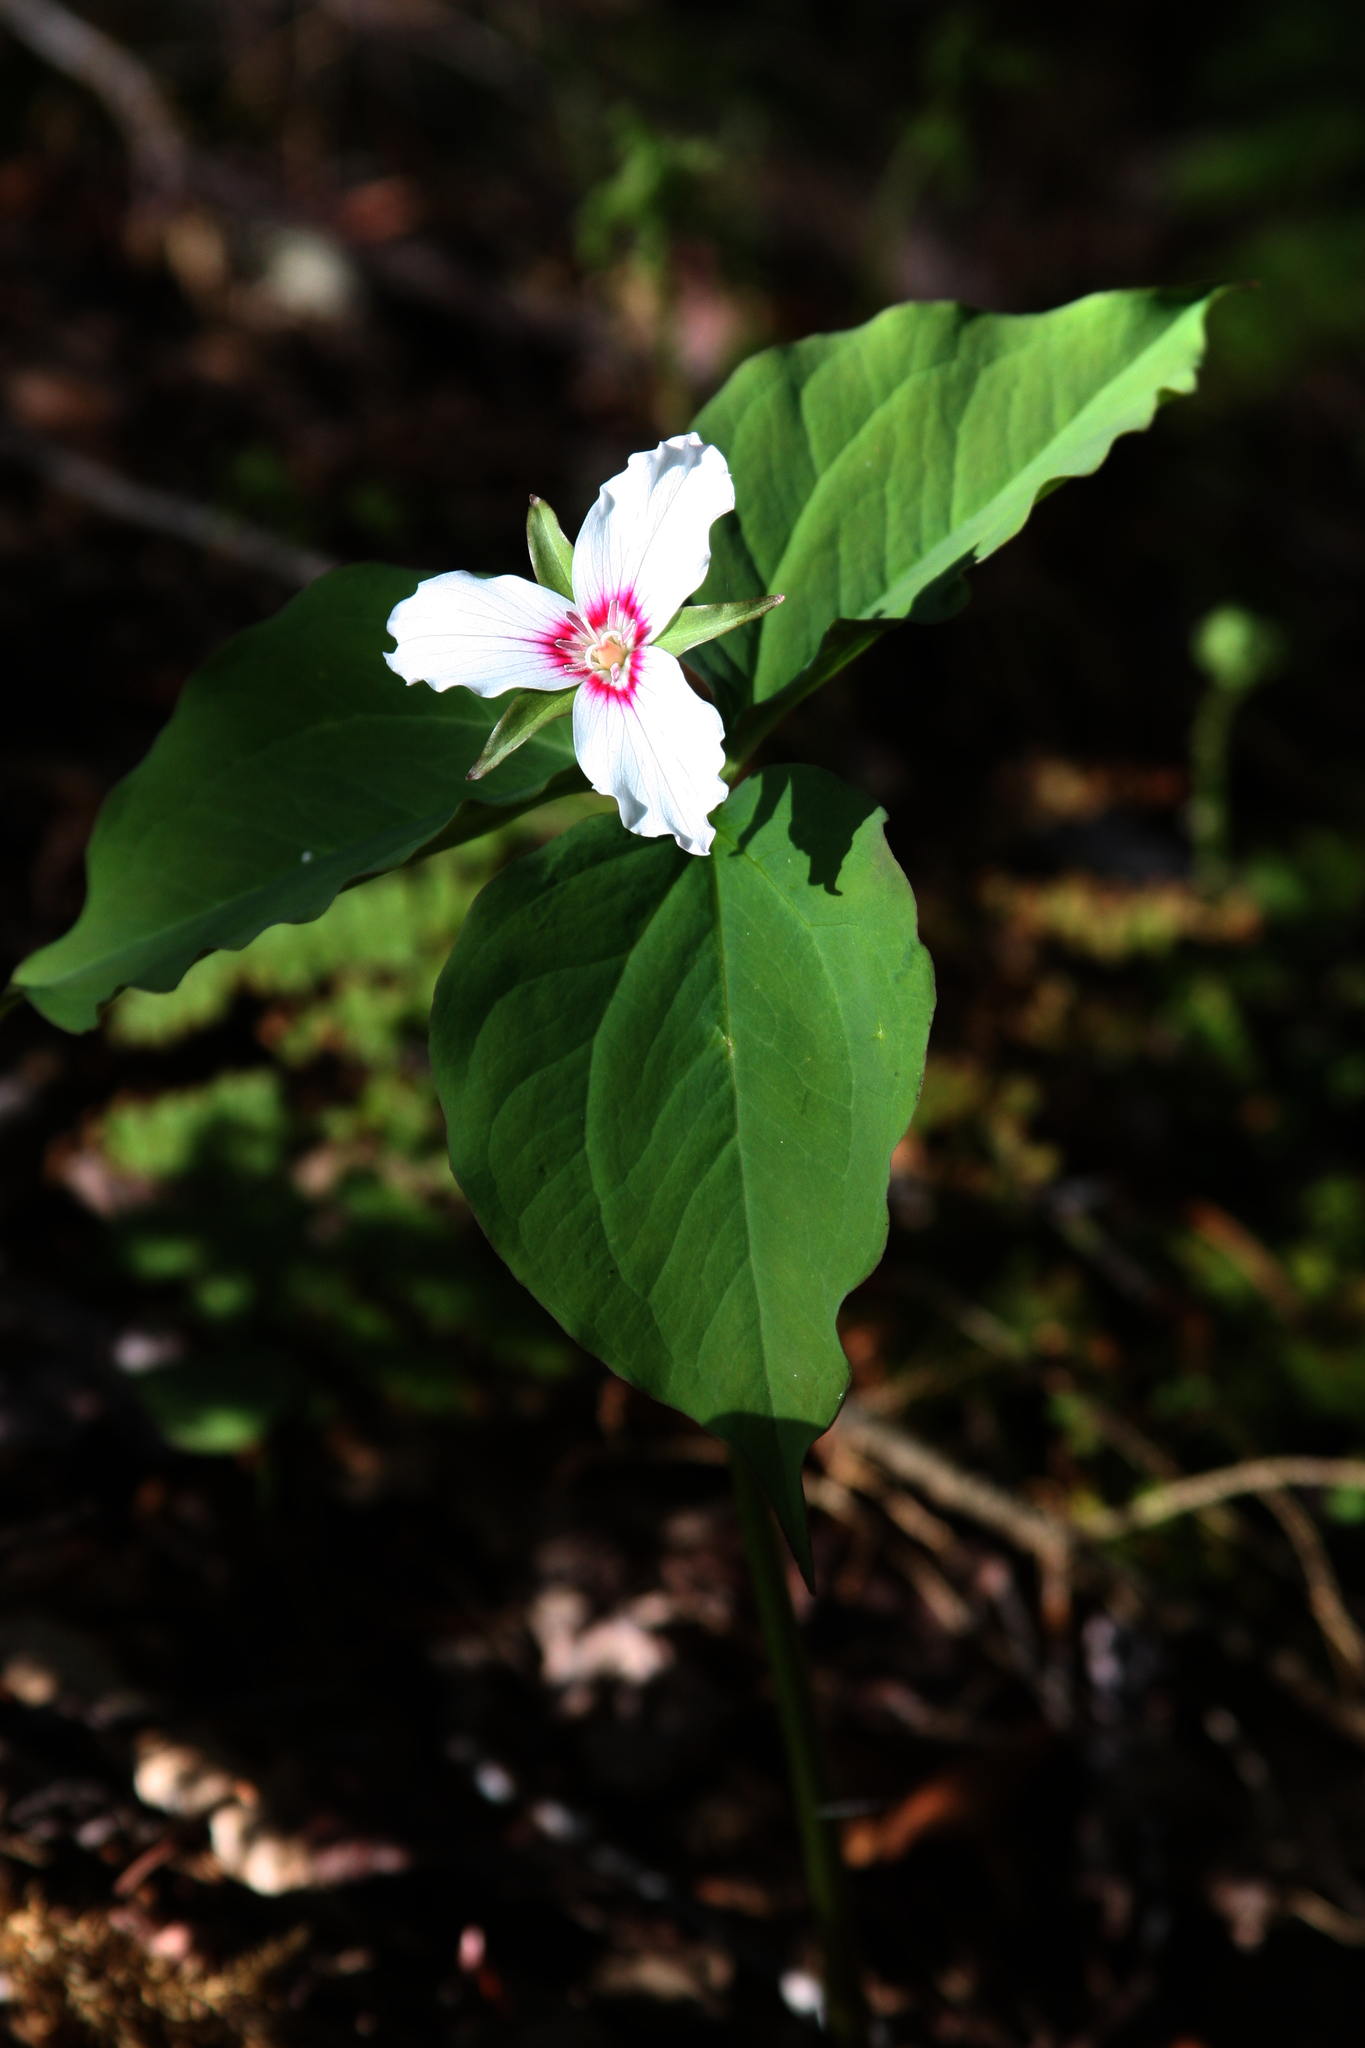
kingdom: Plantae
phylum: Tracheophyta
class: Liliopsida
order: Liliales
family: Melanthiaceae
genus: Trillium
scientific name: Trillium undulatum
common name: Paint trillium
